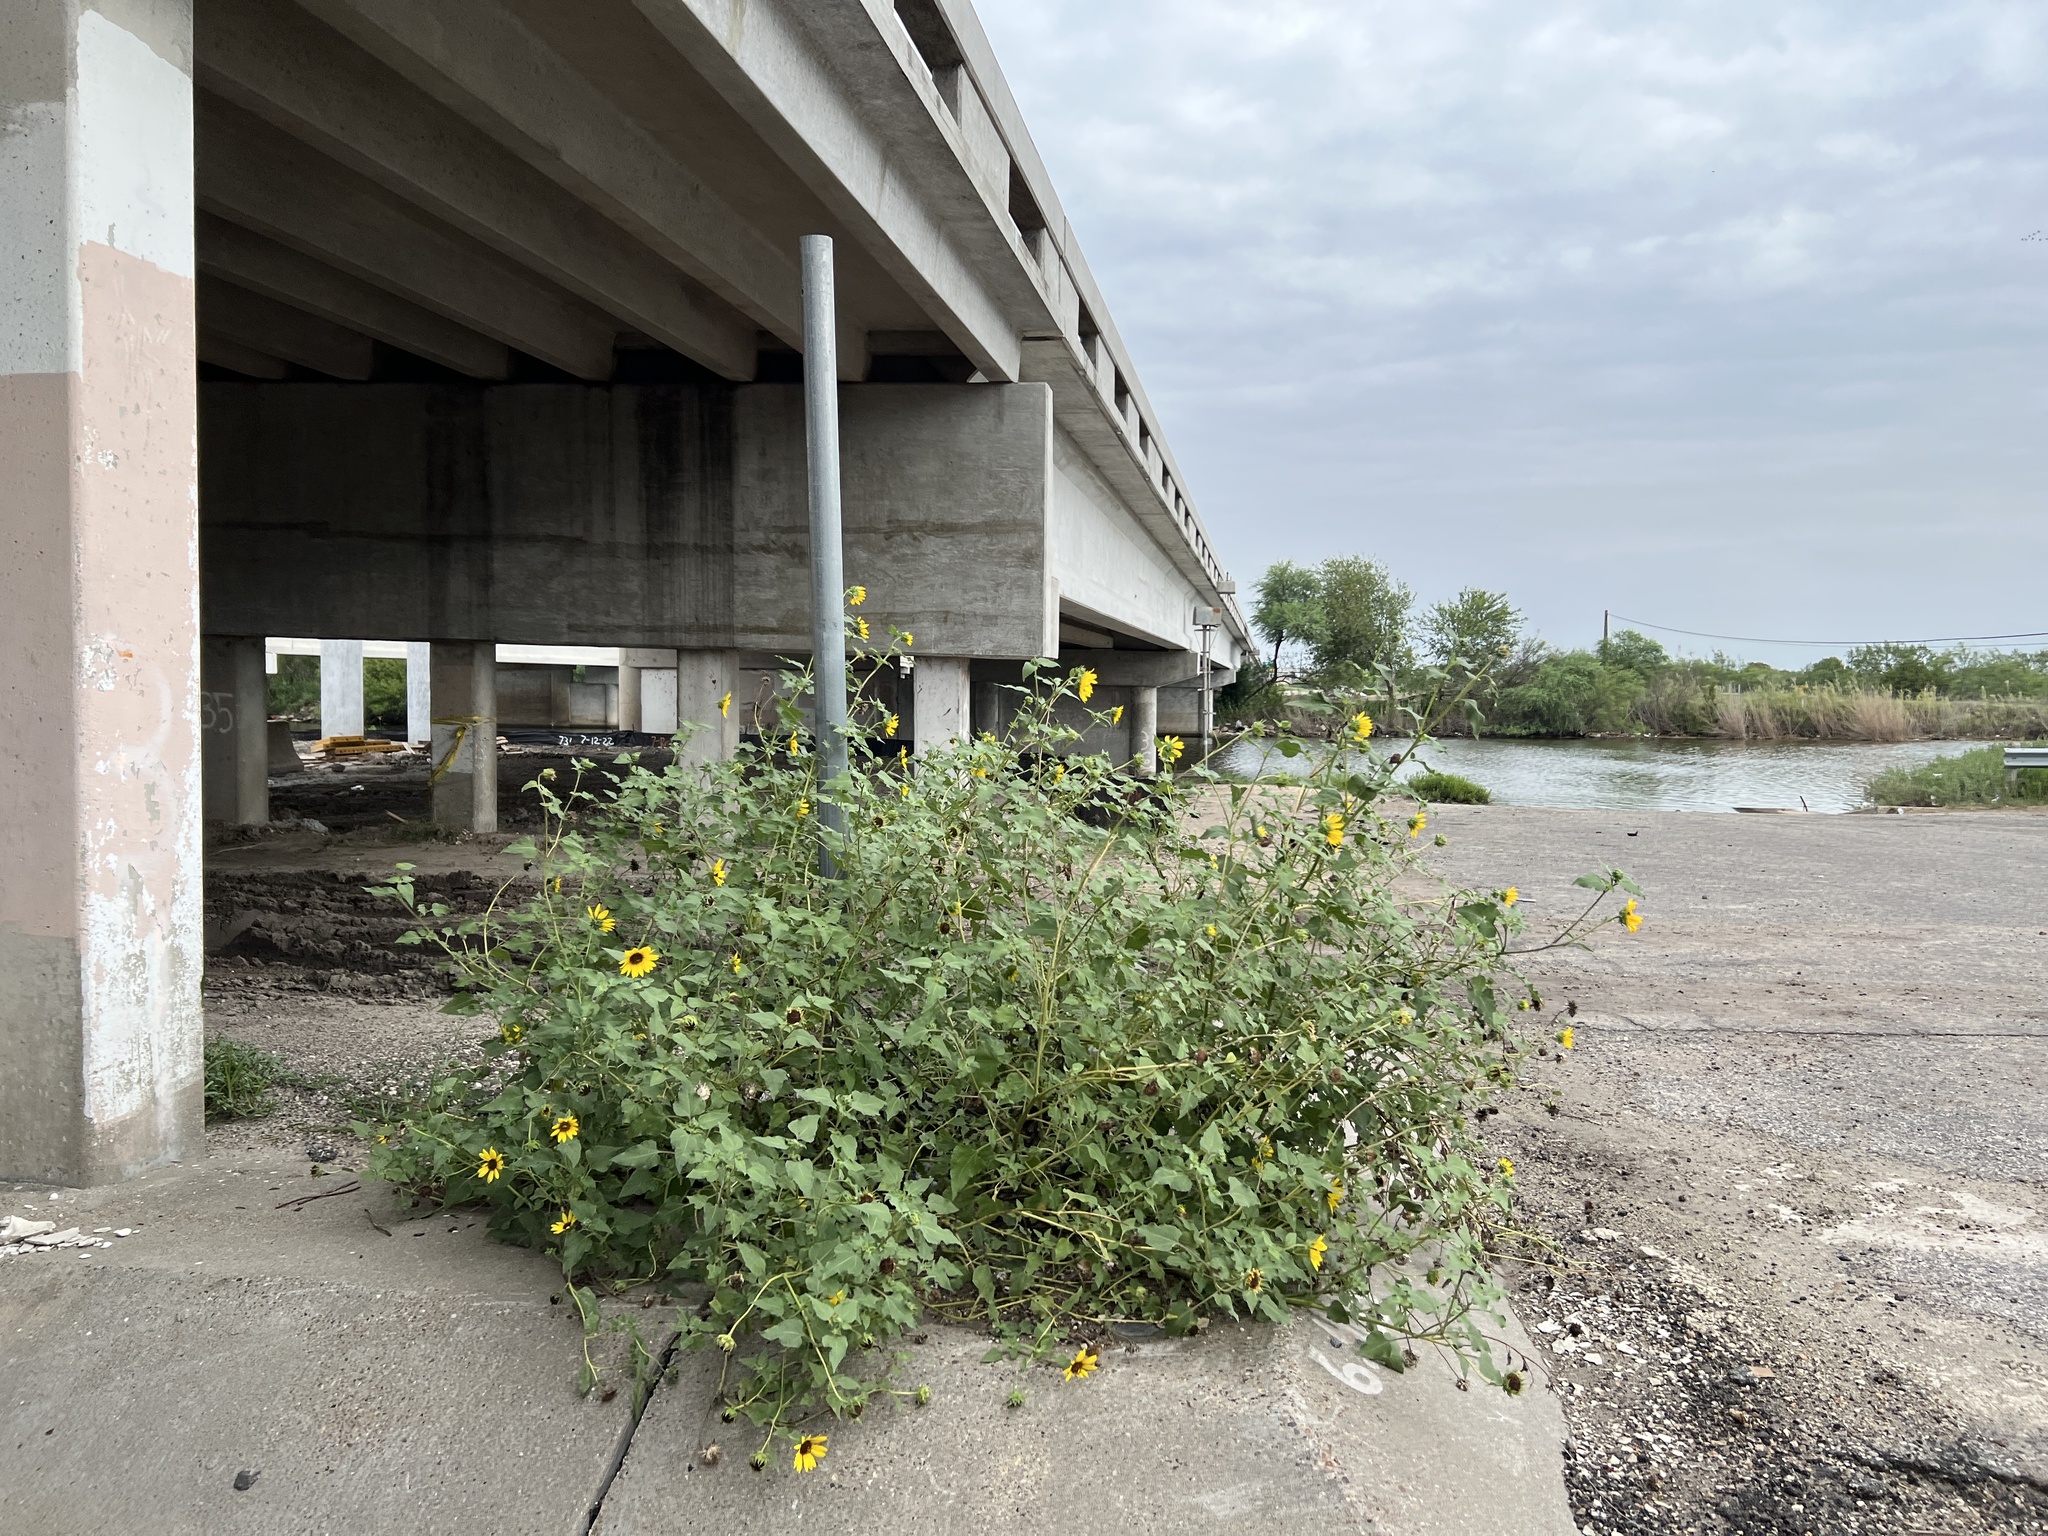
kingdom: Plantae
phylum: Tracheophyta
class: Magnoliopsida
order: Asterales
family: Asteraceae
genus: Helianthus
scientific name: Helianthus annuus
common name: Sunflower
